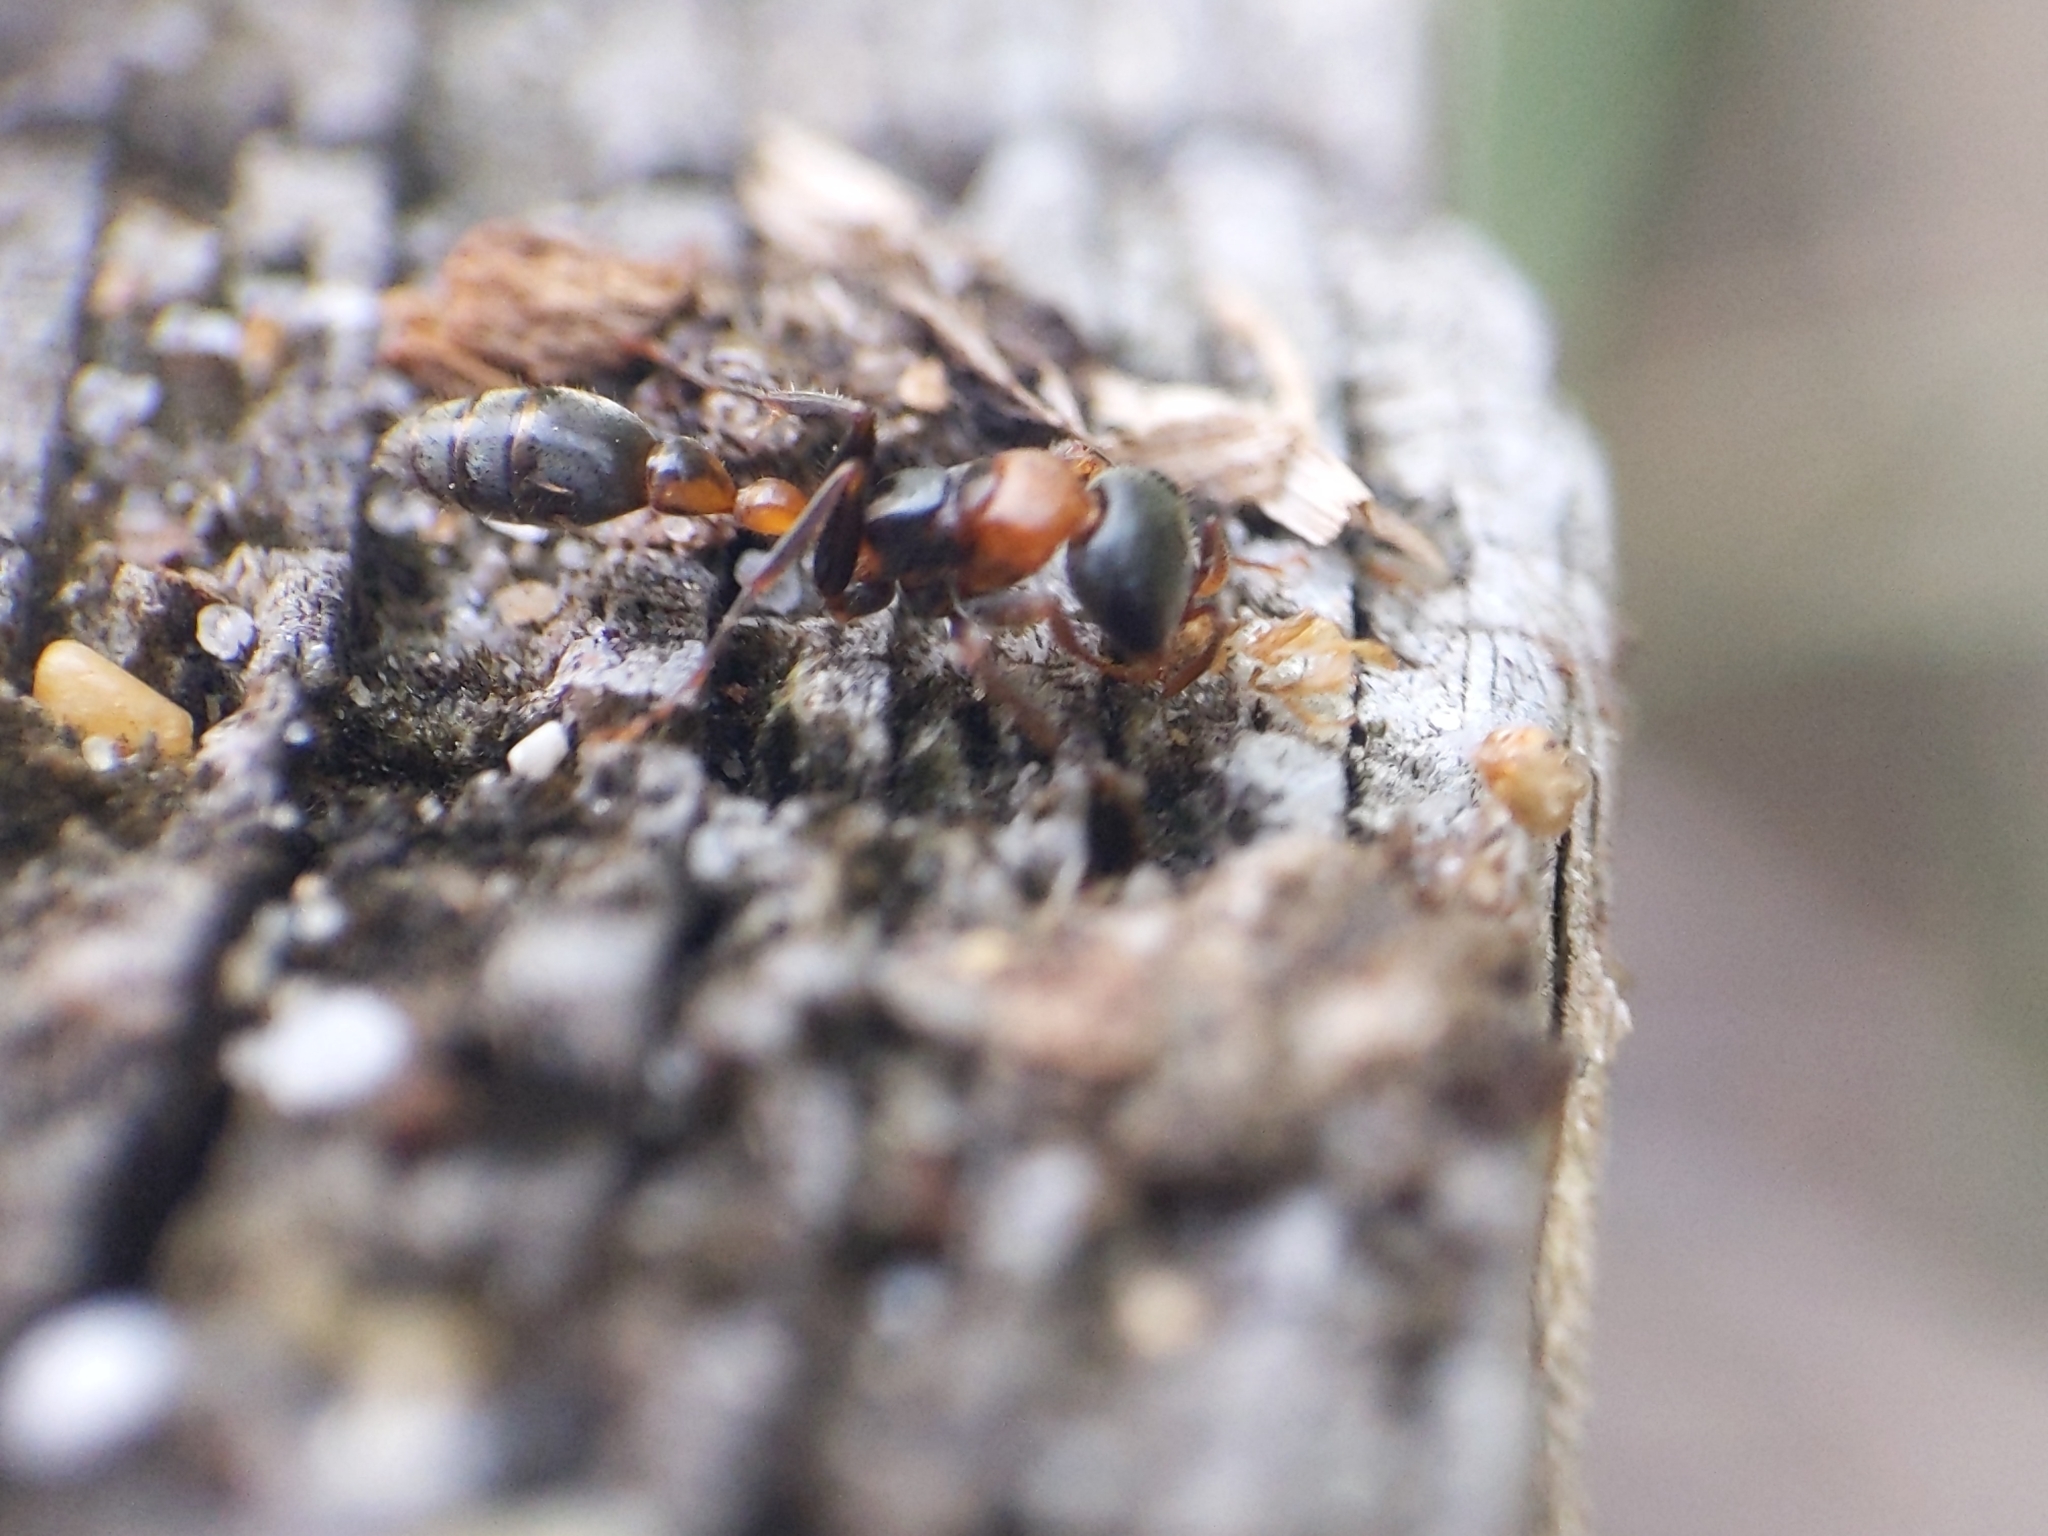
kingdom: Animalia
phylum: Arthropoda
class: Insecta
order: Hymenoptera
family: Formicidae
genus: Pseudomyrmex
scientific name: Pseudomyrmex gracilis
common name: Graceful twig ant
